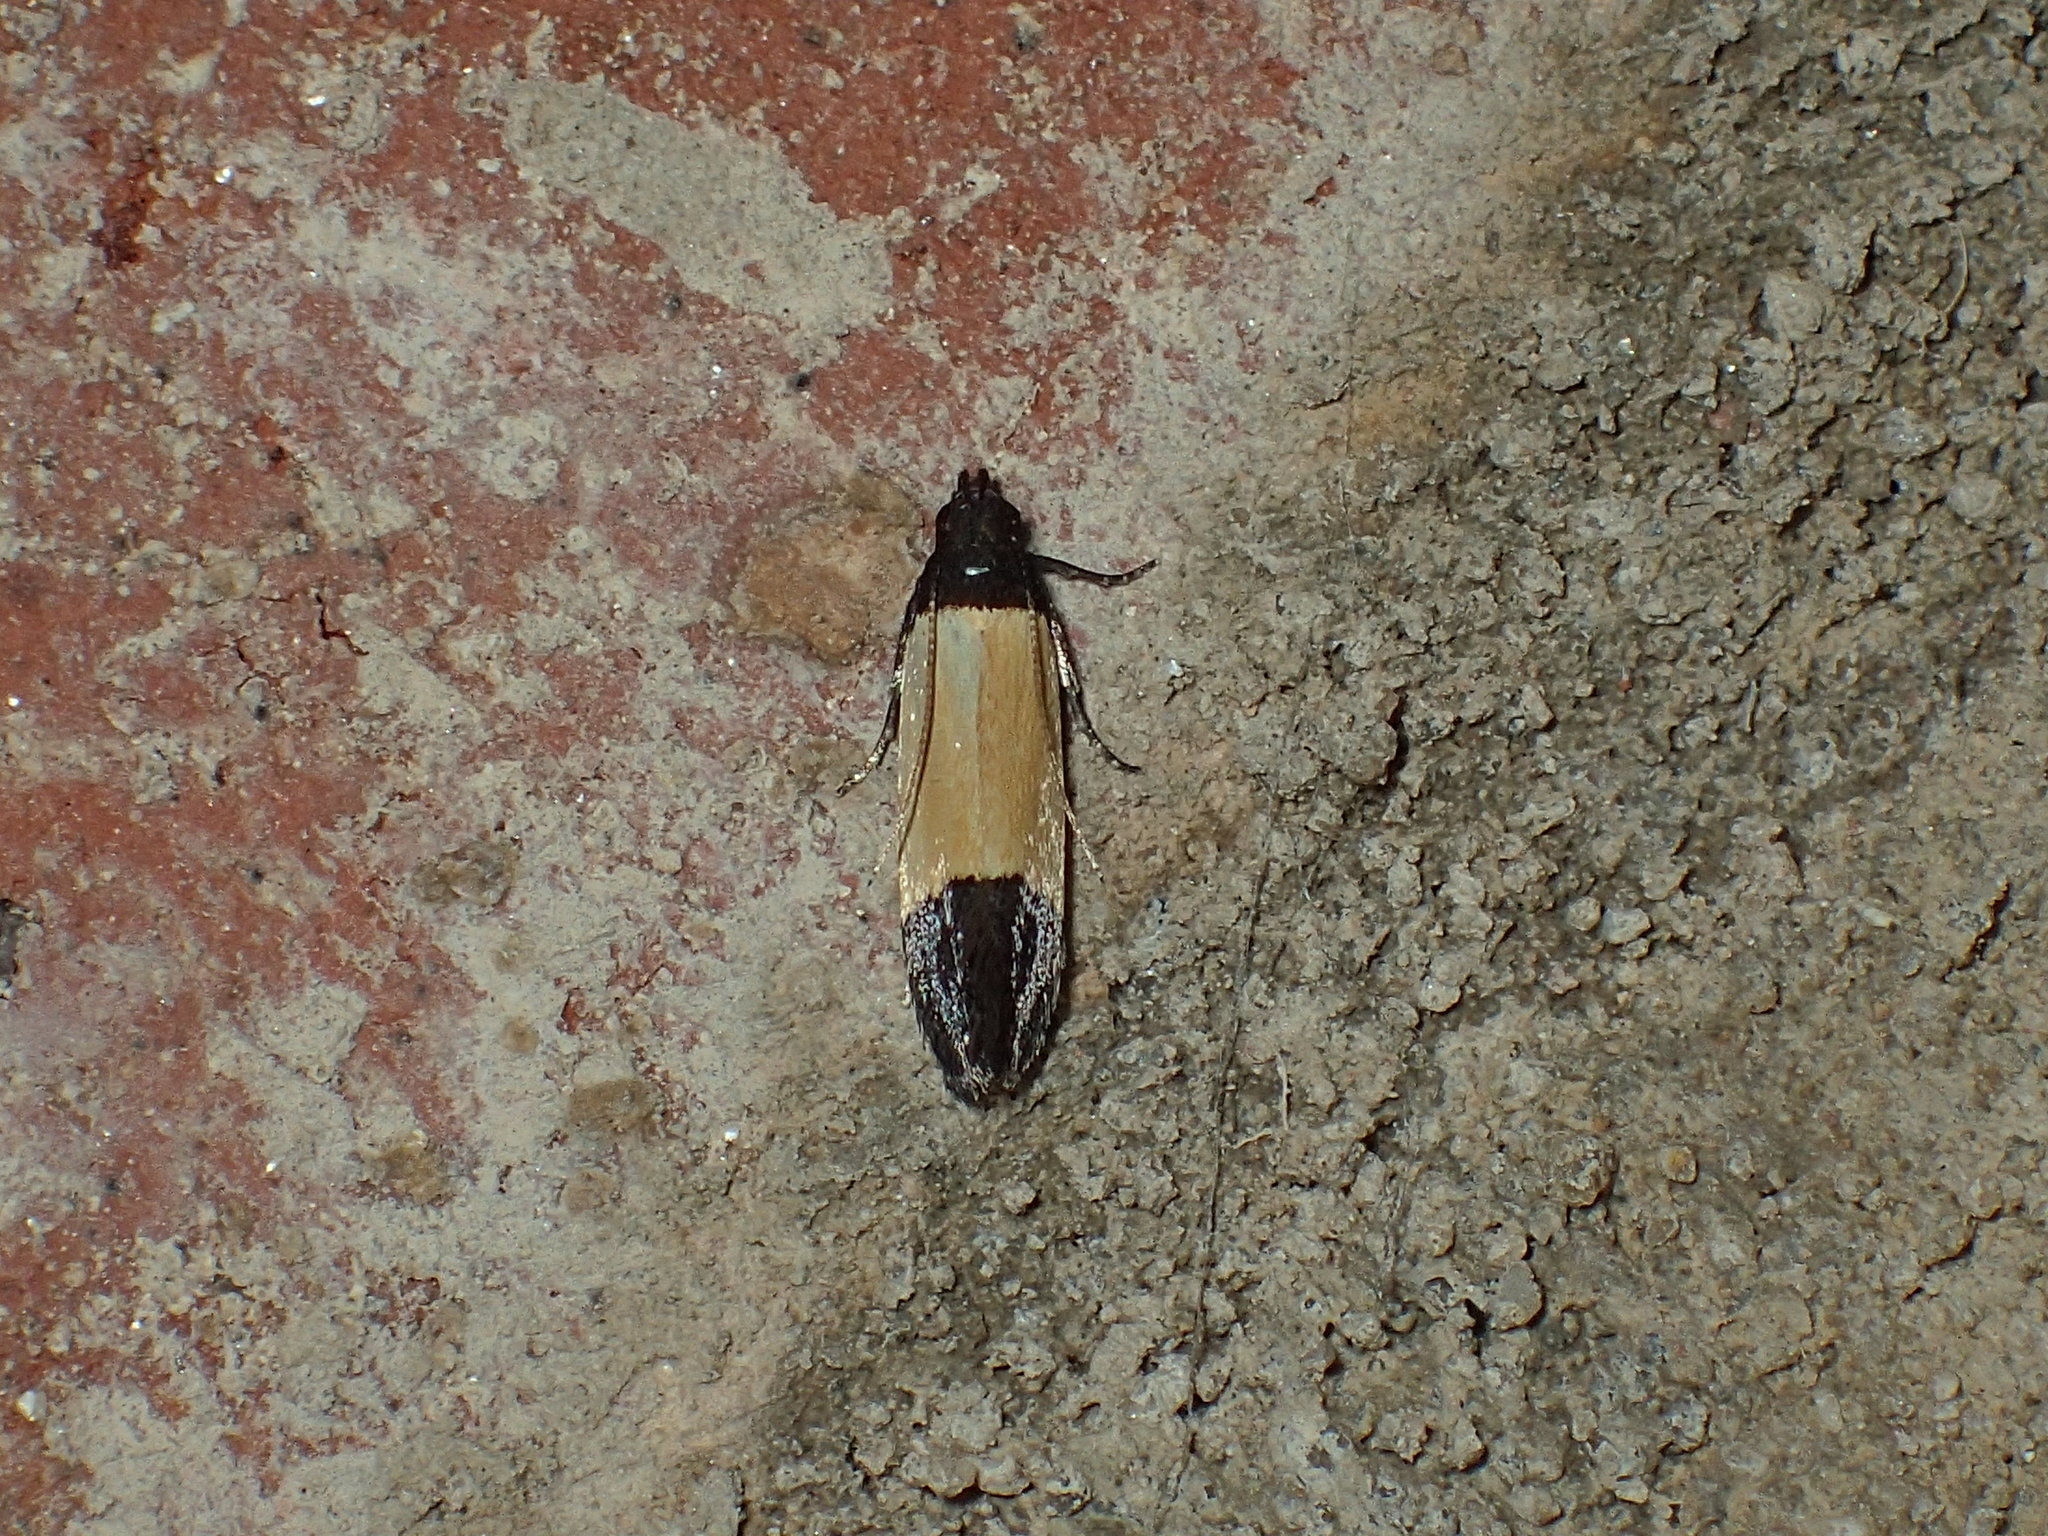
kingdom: Animalia
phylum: Arthropoda
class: Insecta
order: Lepidoptera
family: Gelechiidae
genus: Anacampsis
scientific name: Anacampsis coverdalella
